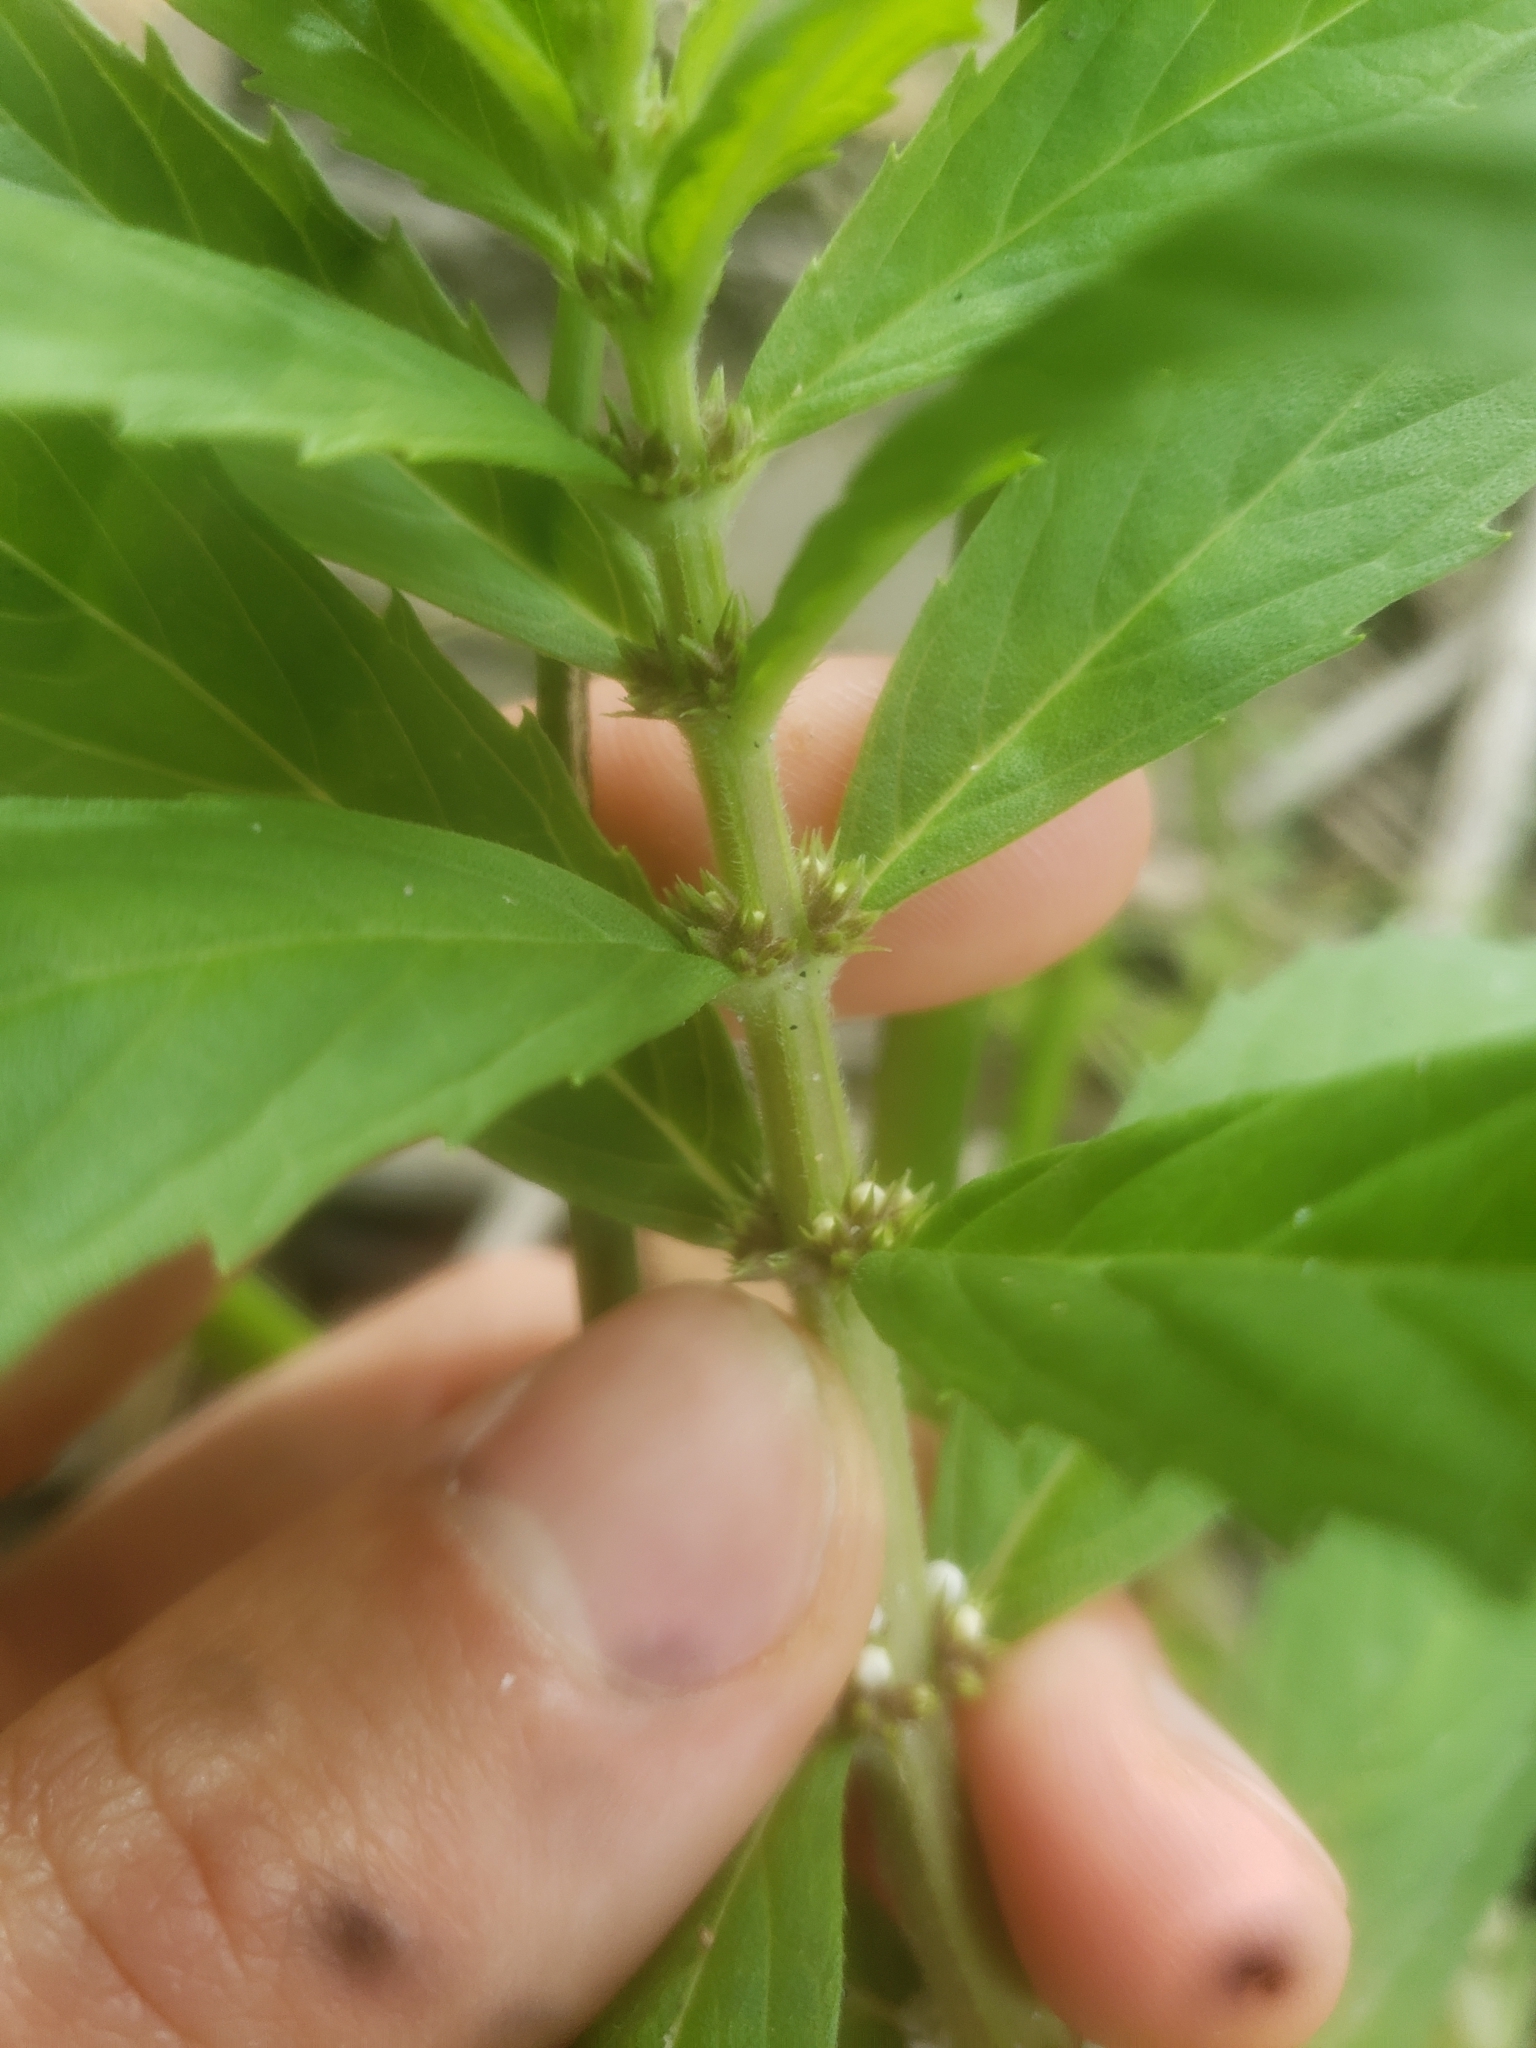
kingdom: Plantae
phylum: Tracheophyta
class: Magnoliopsida
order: Lamiales
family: Lamiaceae
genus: Lycopus
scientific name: Lycopus asper
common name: Rough water-horehound
